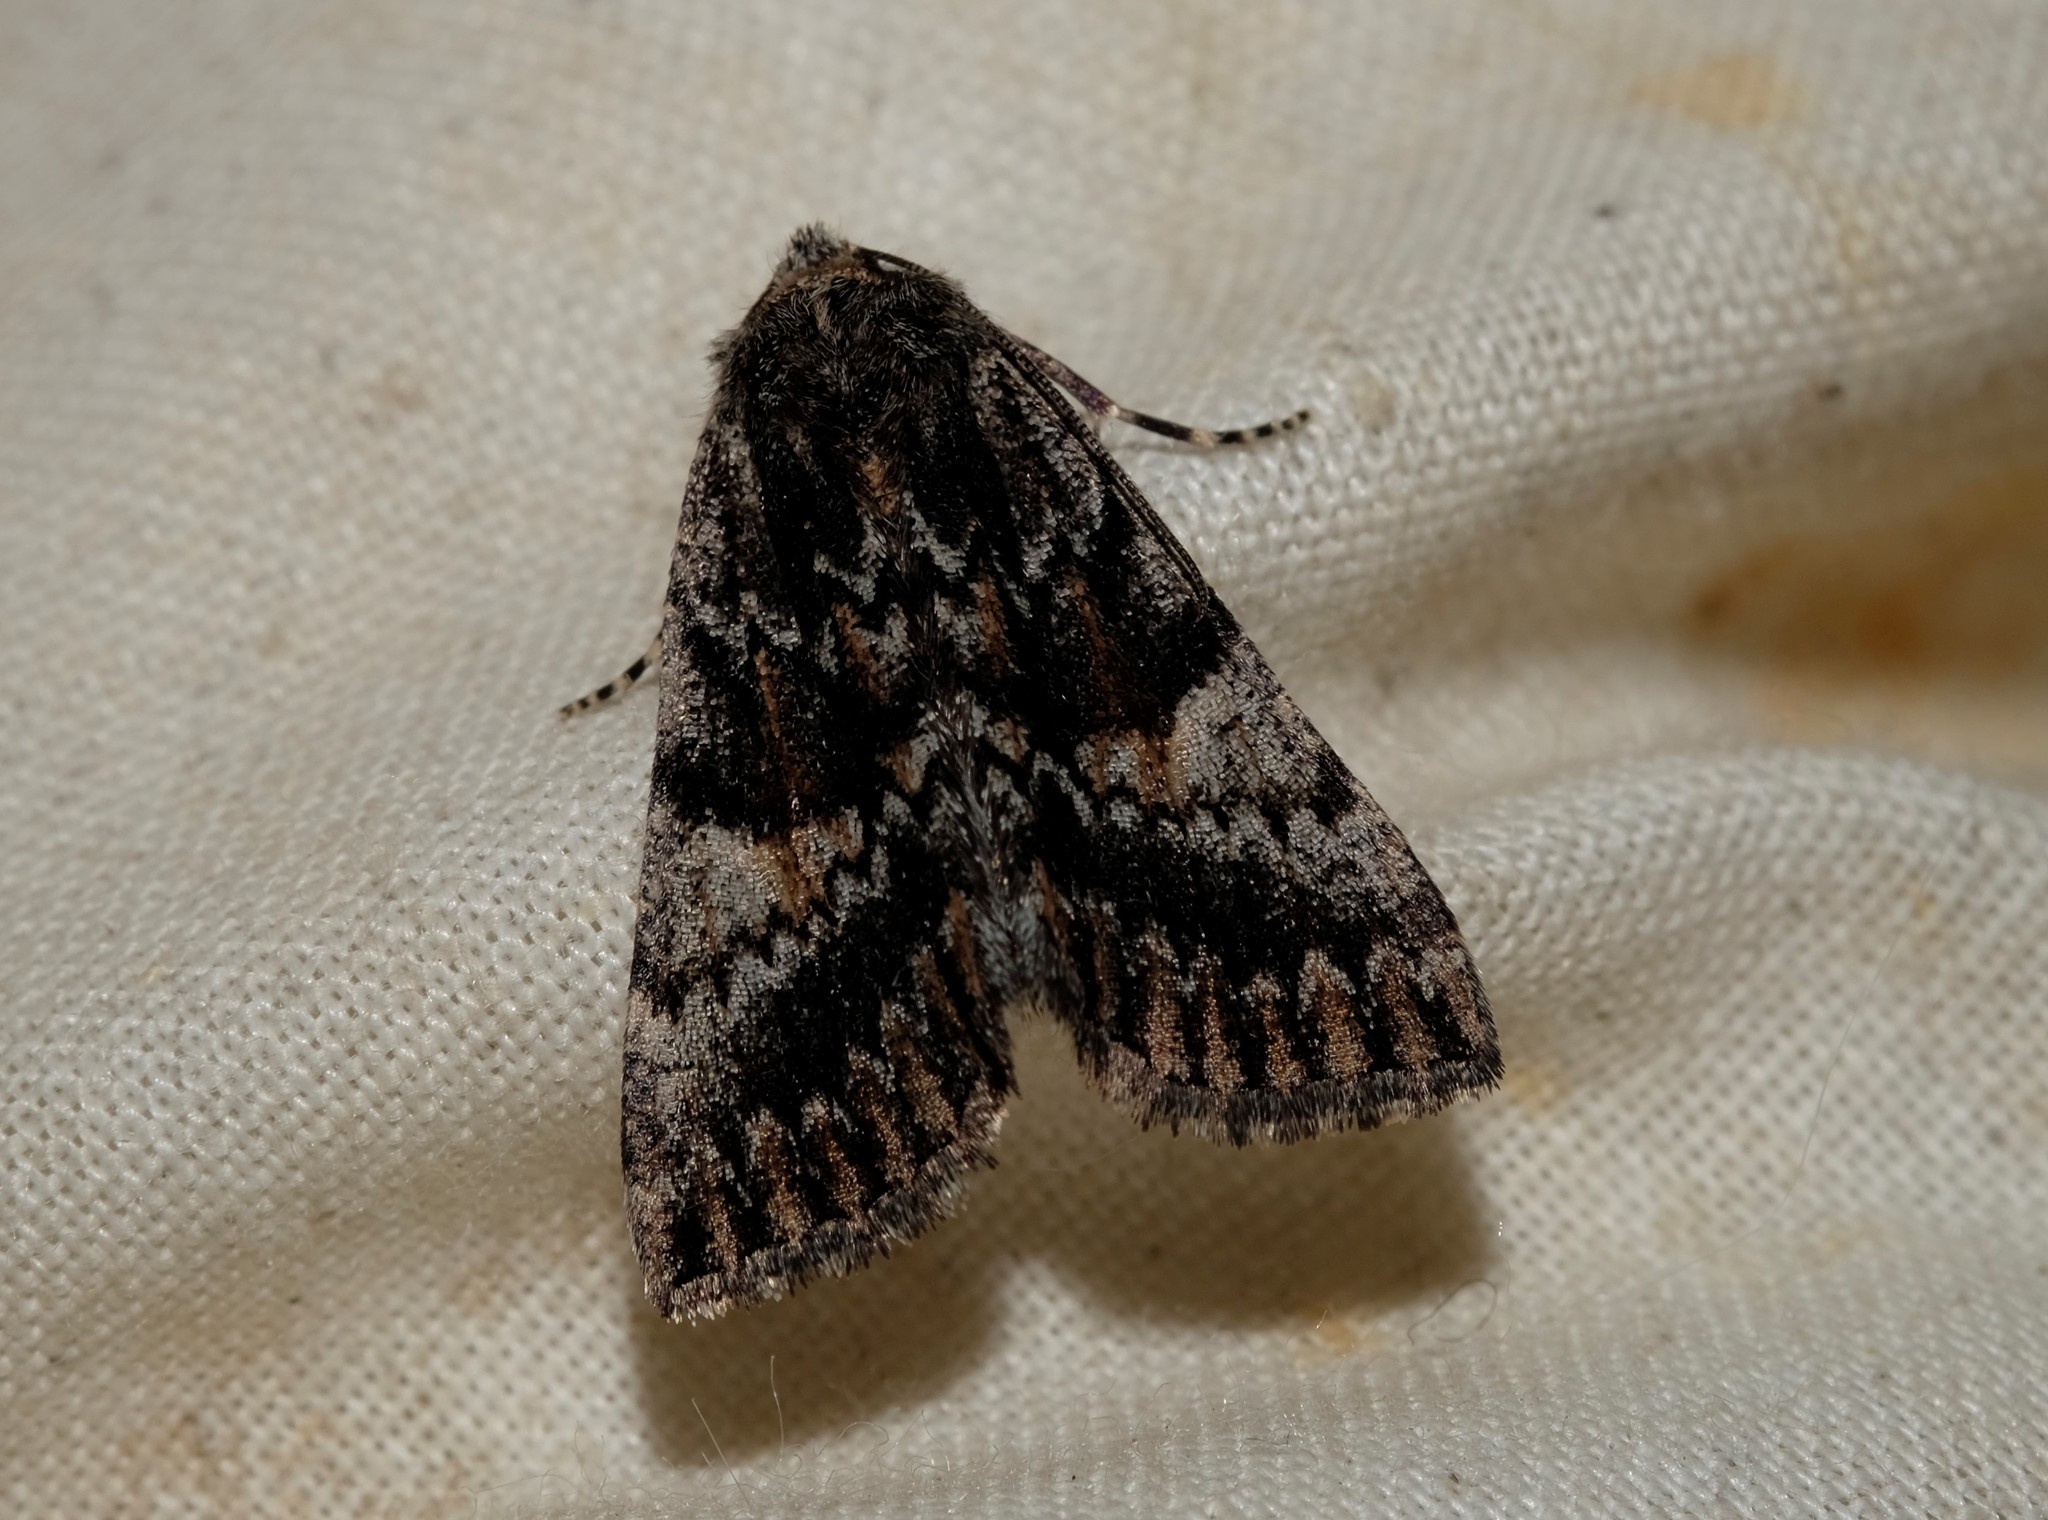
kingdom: Animalia
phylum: Arthropoda
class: Insecta
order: Lepidoptera
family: Geometridae
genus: Smyriodes
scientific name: Smyriodes
